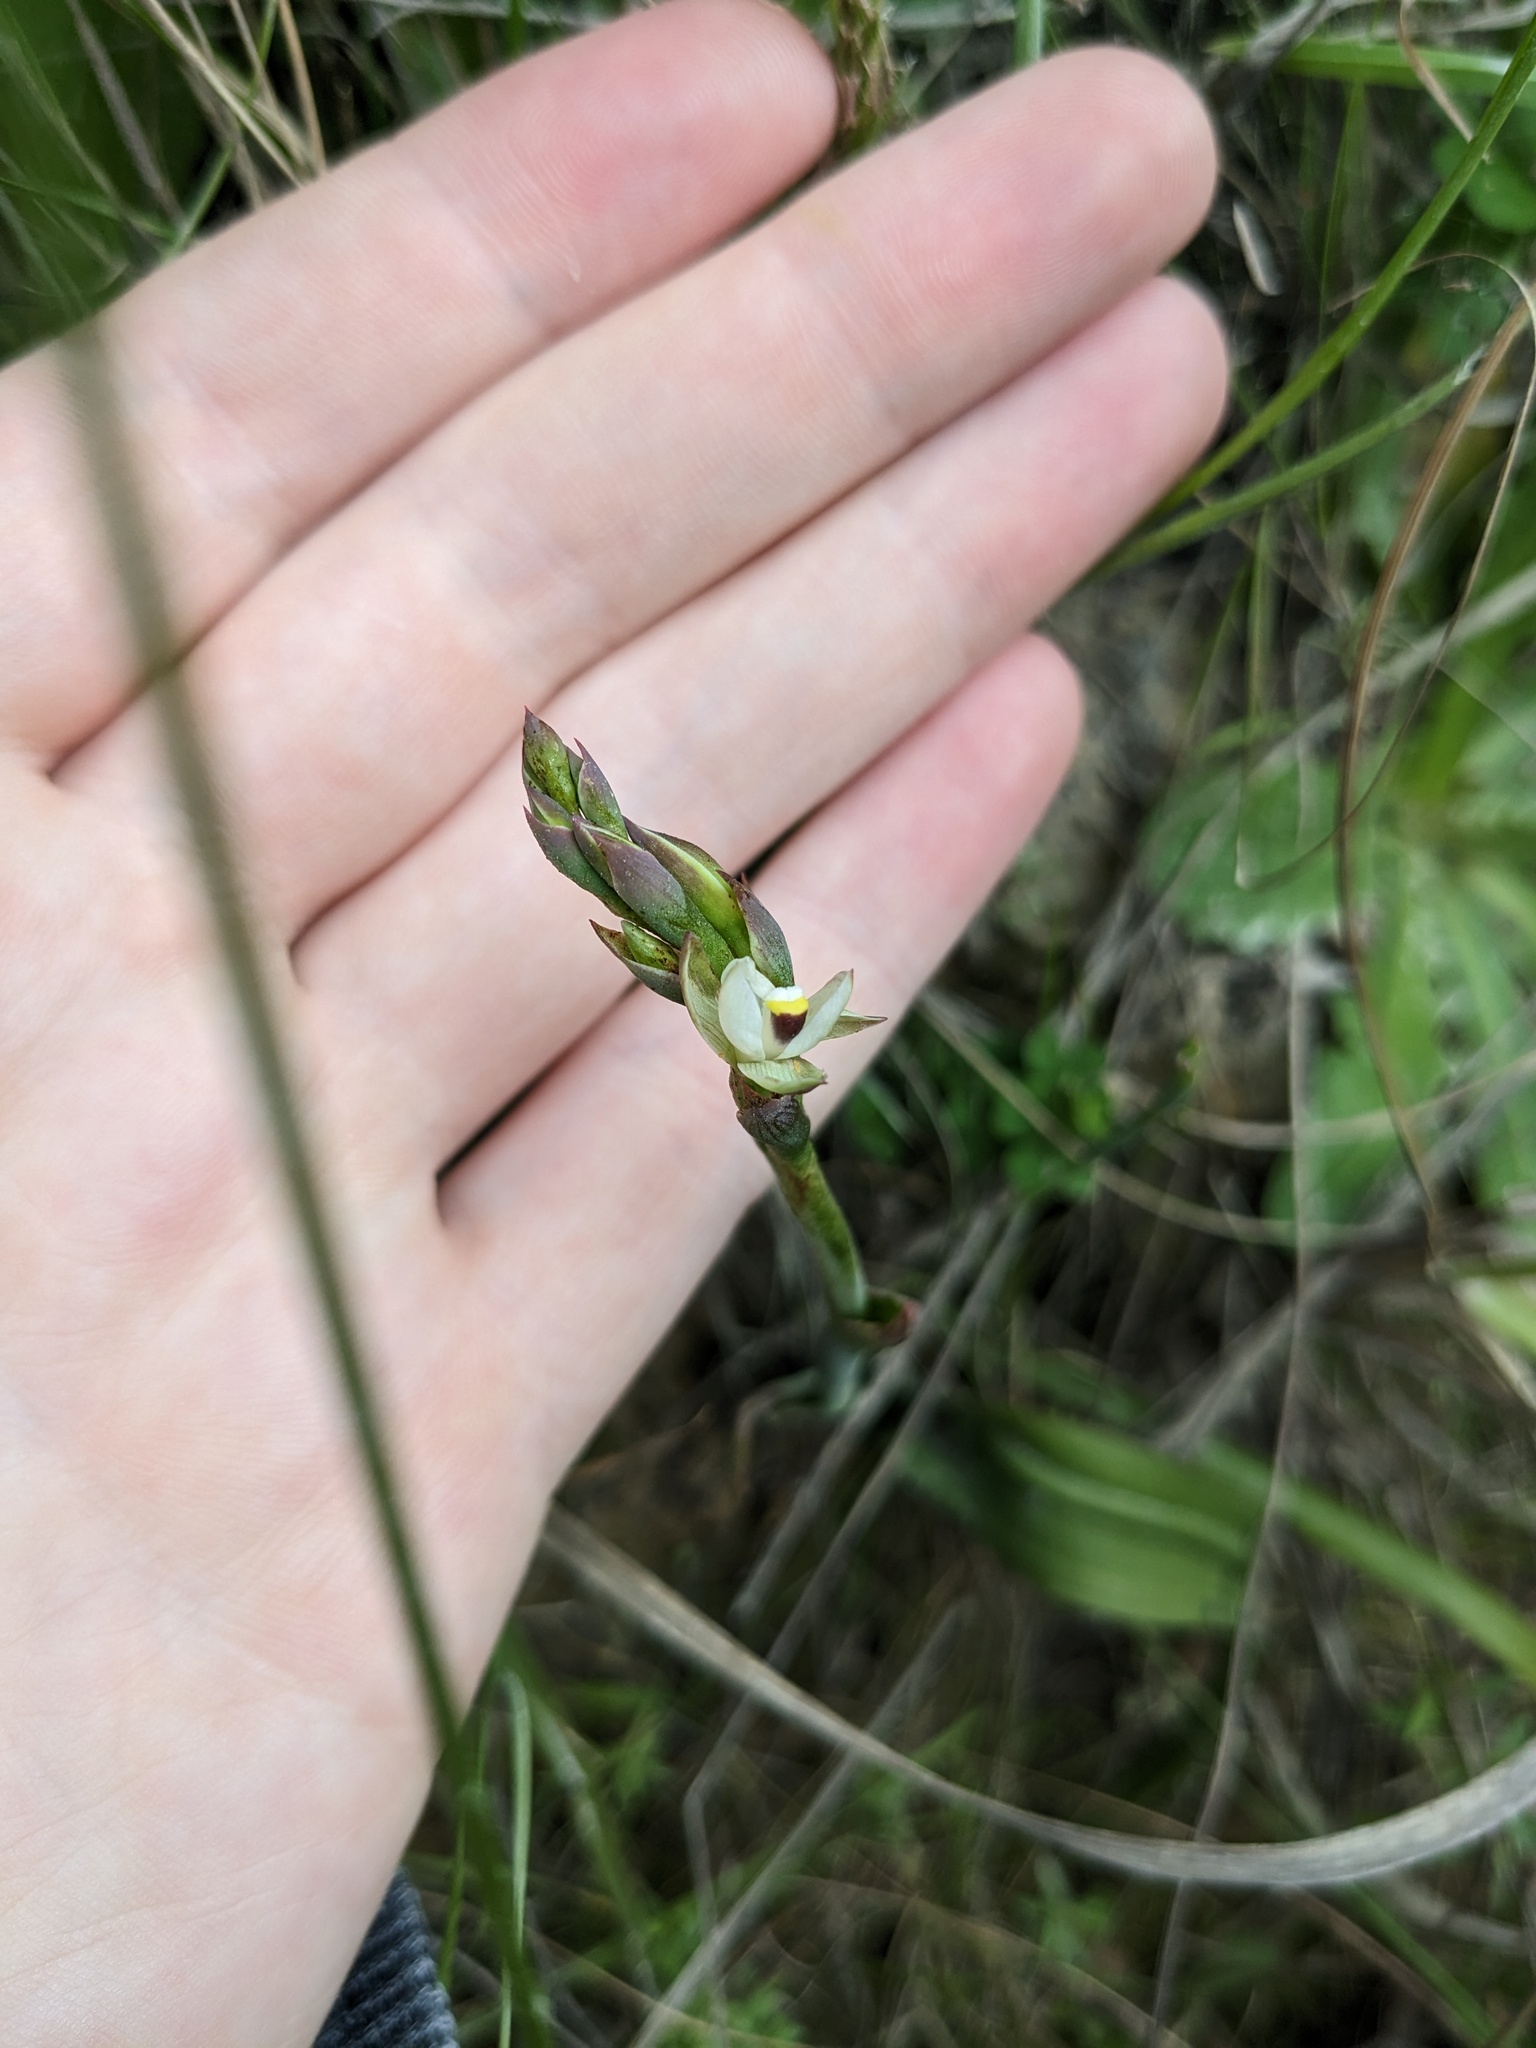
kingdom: Plantae
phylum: Tracheophyta
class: Liliopsida
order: Asparagales
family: Orchidaceae
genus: Thelymitra
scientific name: Thelymitra longifolia
